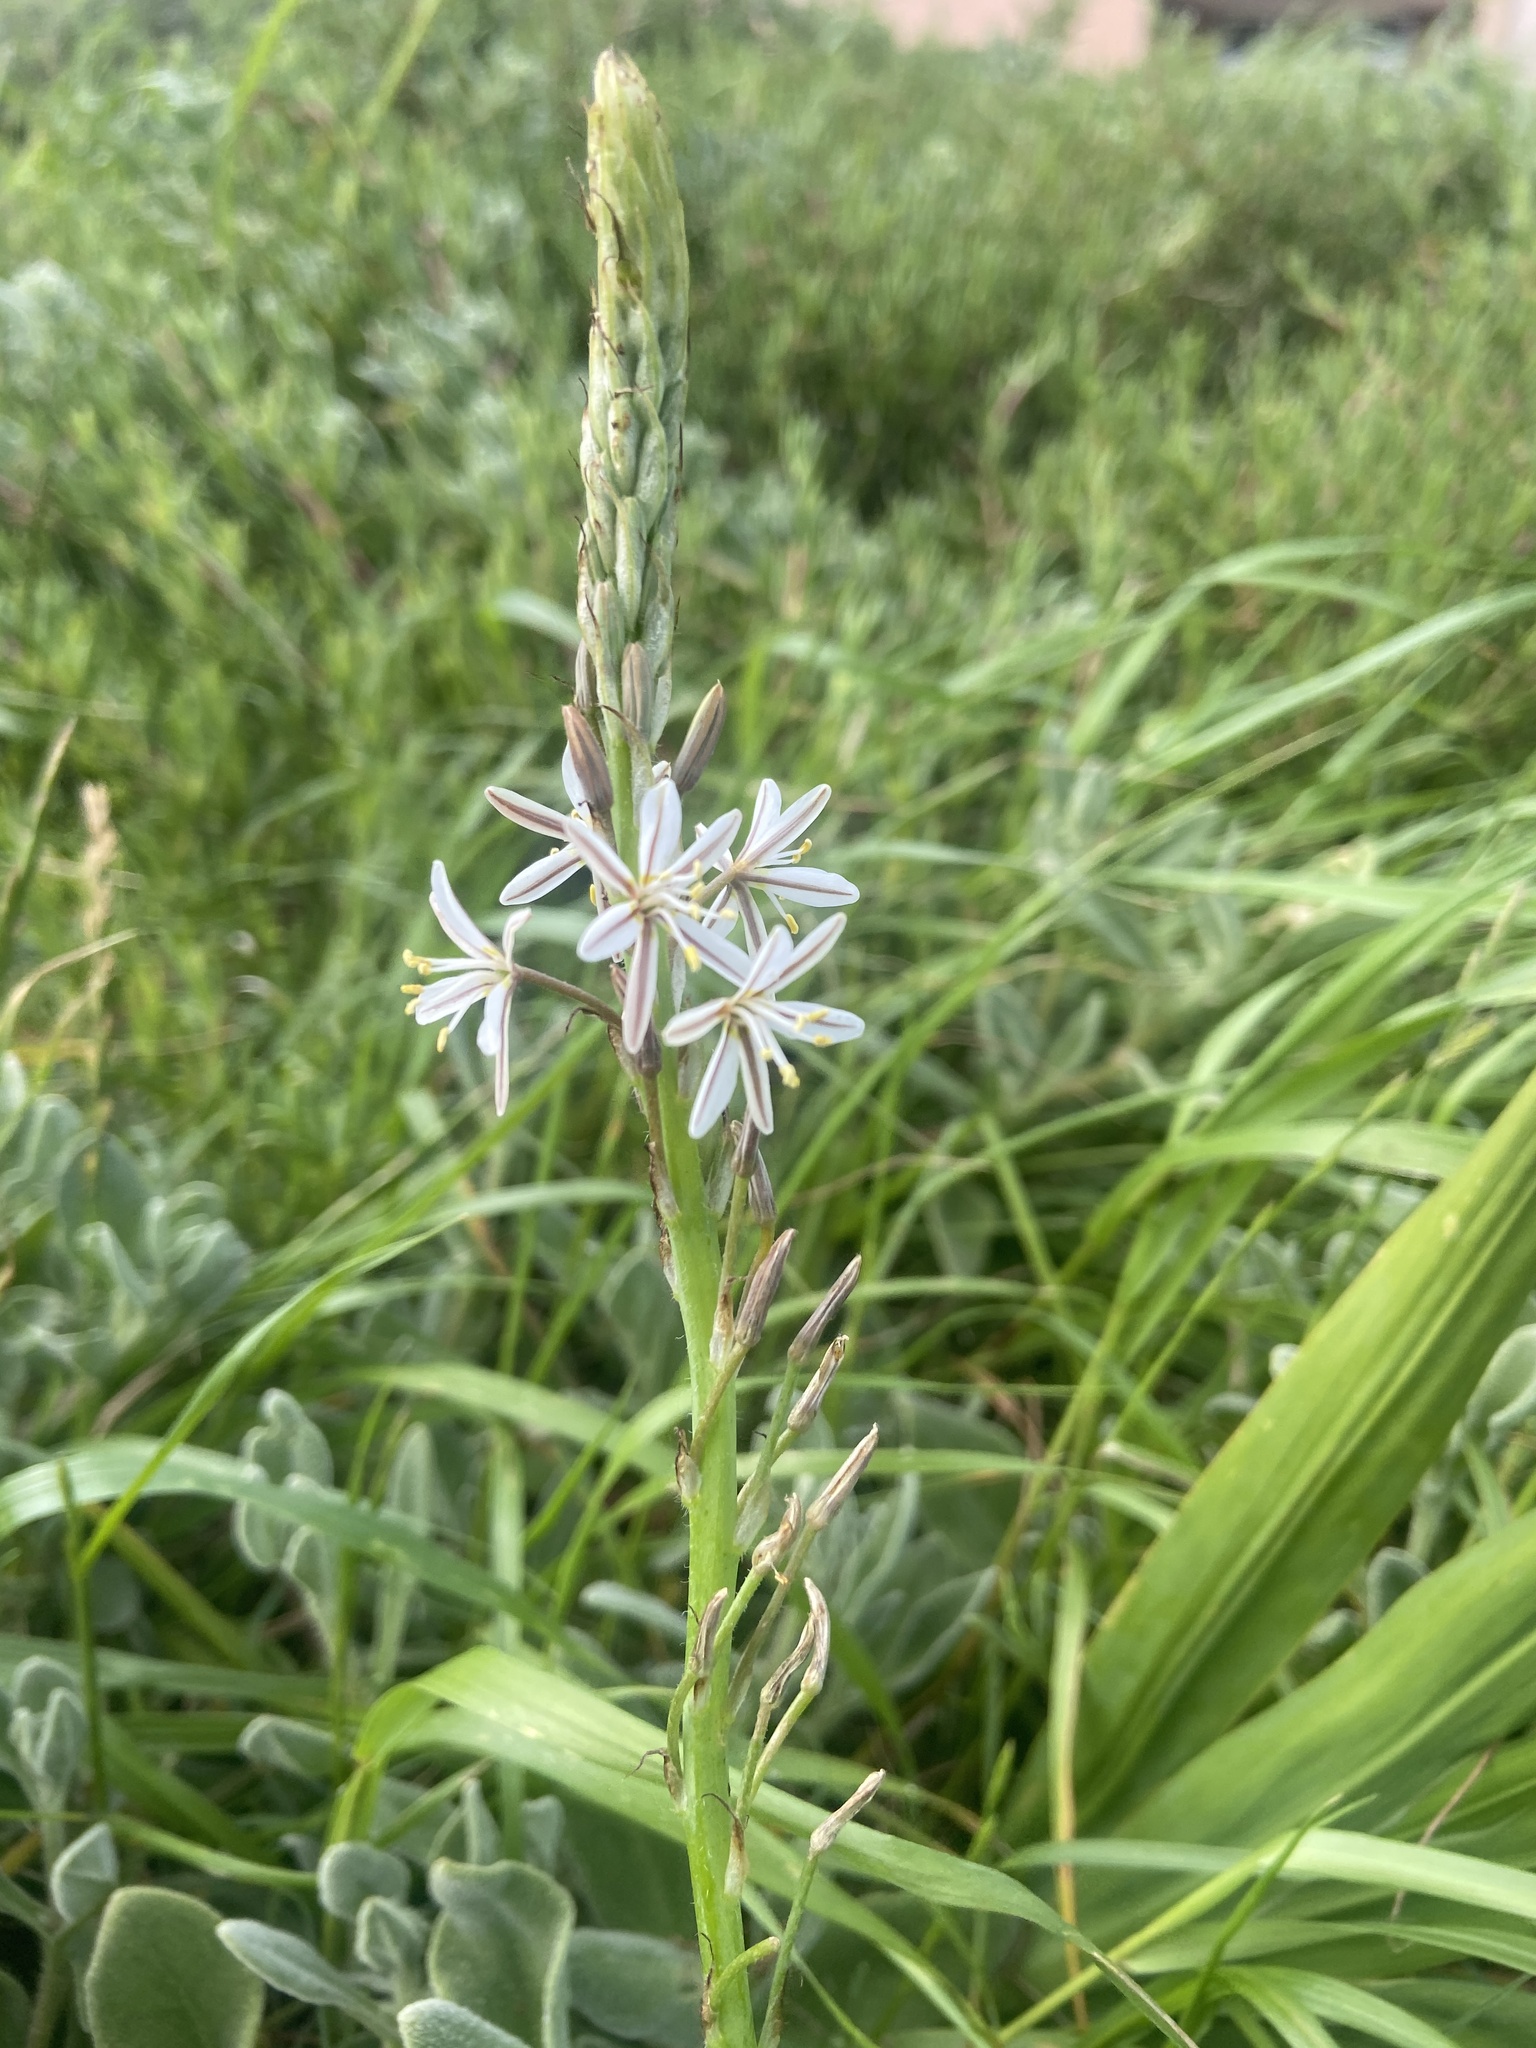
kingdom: Plantae
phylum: Tracheophyta
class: Liliopsida
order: Asparagales
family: Asphodelaceae
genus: Trachyandra
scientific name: Trachyandra ciliata
